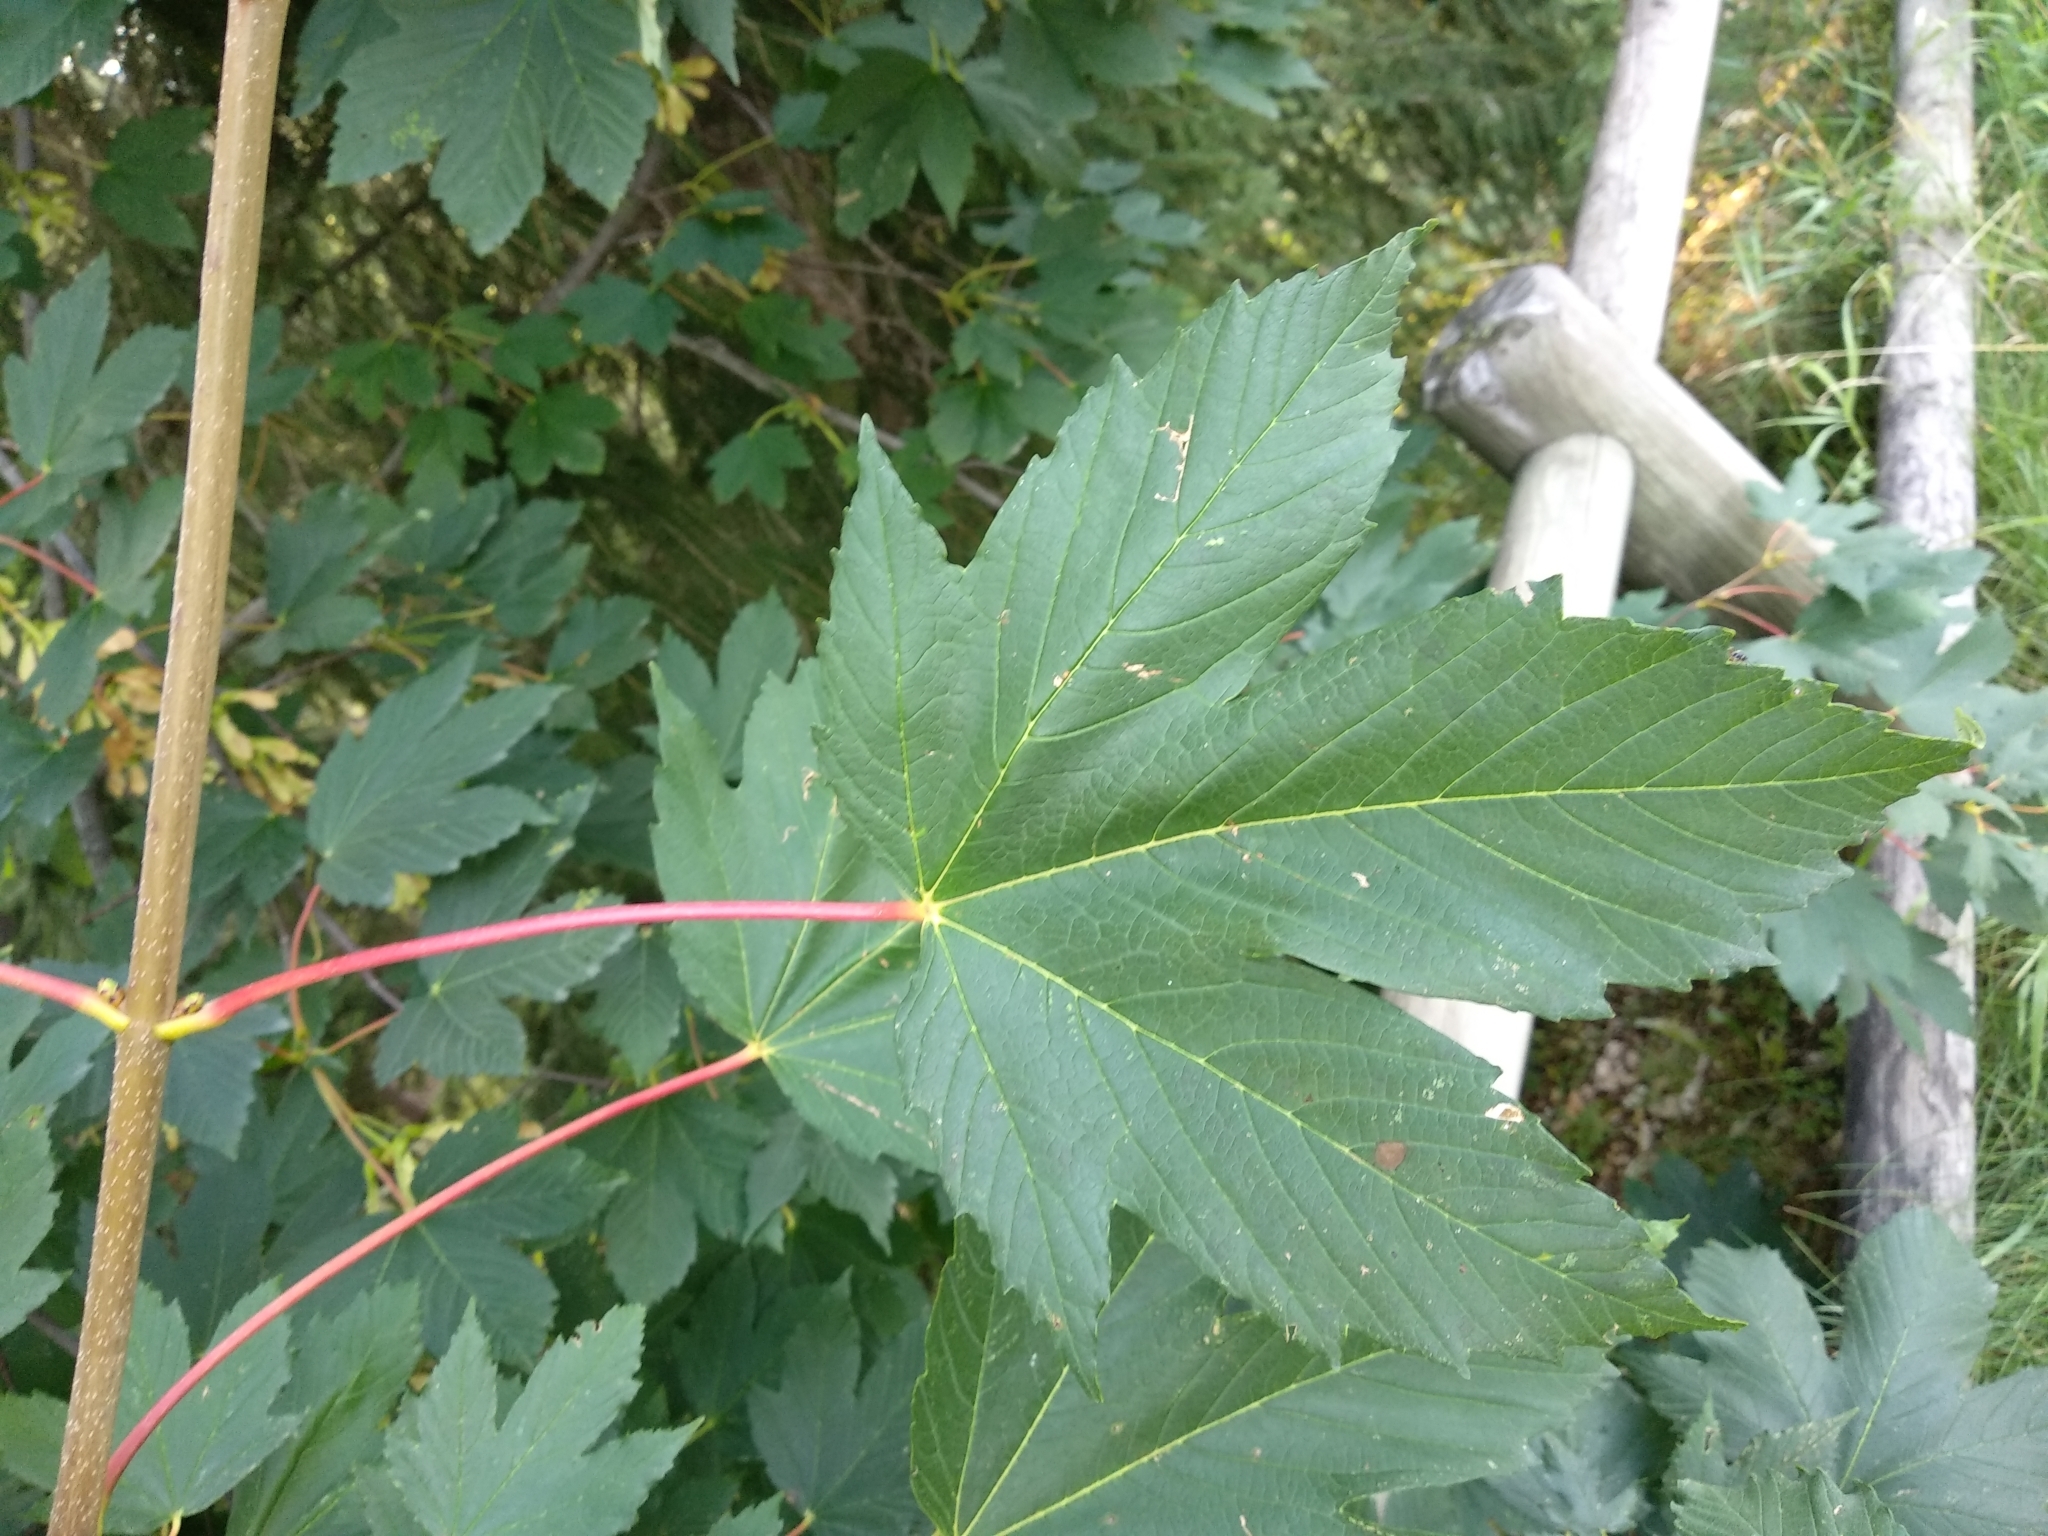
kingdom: Plantae
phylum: Tracheophyta
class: Magnoliopsida
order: Sapindales
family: Sapindaceae
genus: Acer
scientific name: Acer pseudoplatanus
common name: Sycamore
